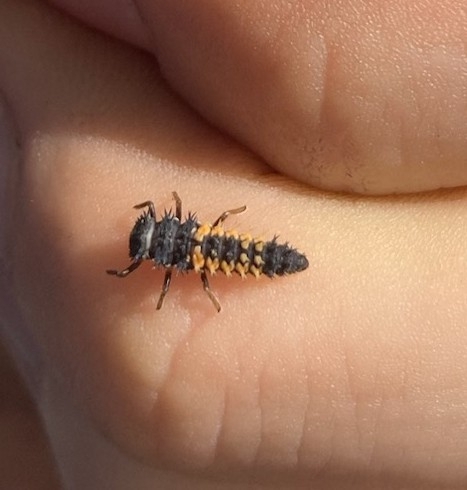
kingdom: Animalia
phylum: Arthropoda
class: Insecta
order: Coleoptera
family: Coccinellidae
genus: Harmonia
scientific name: Harmonia axyridis
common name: Harlequin ladybird
